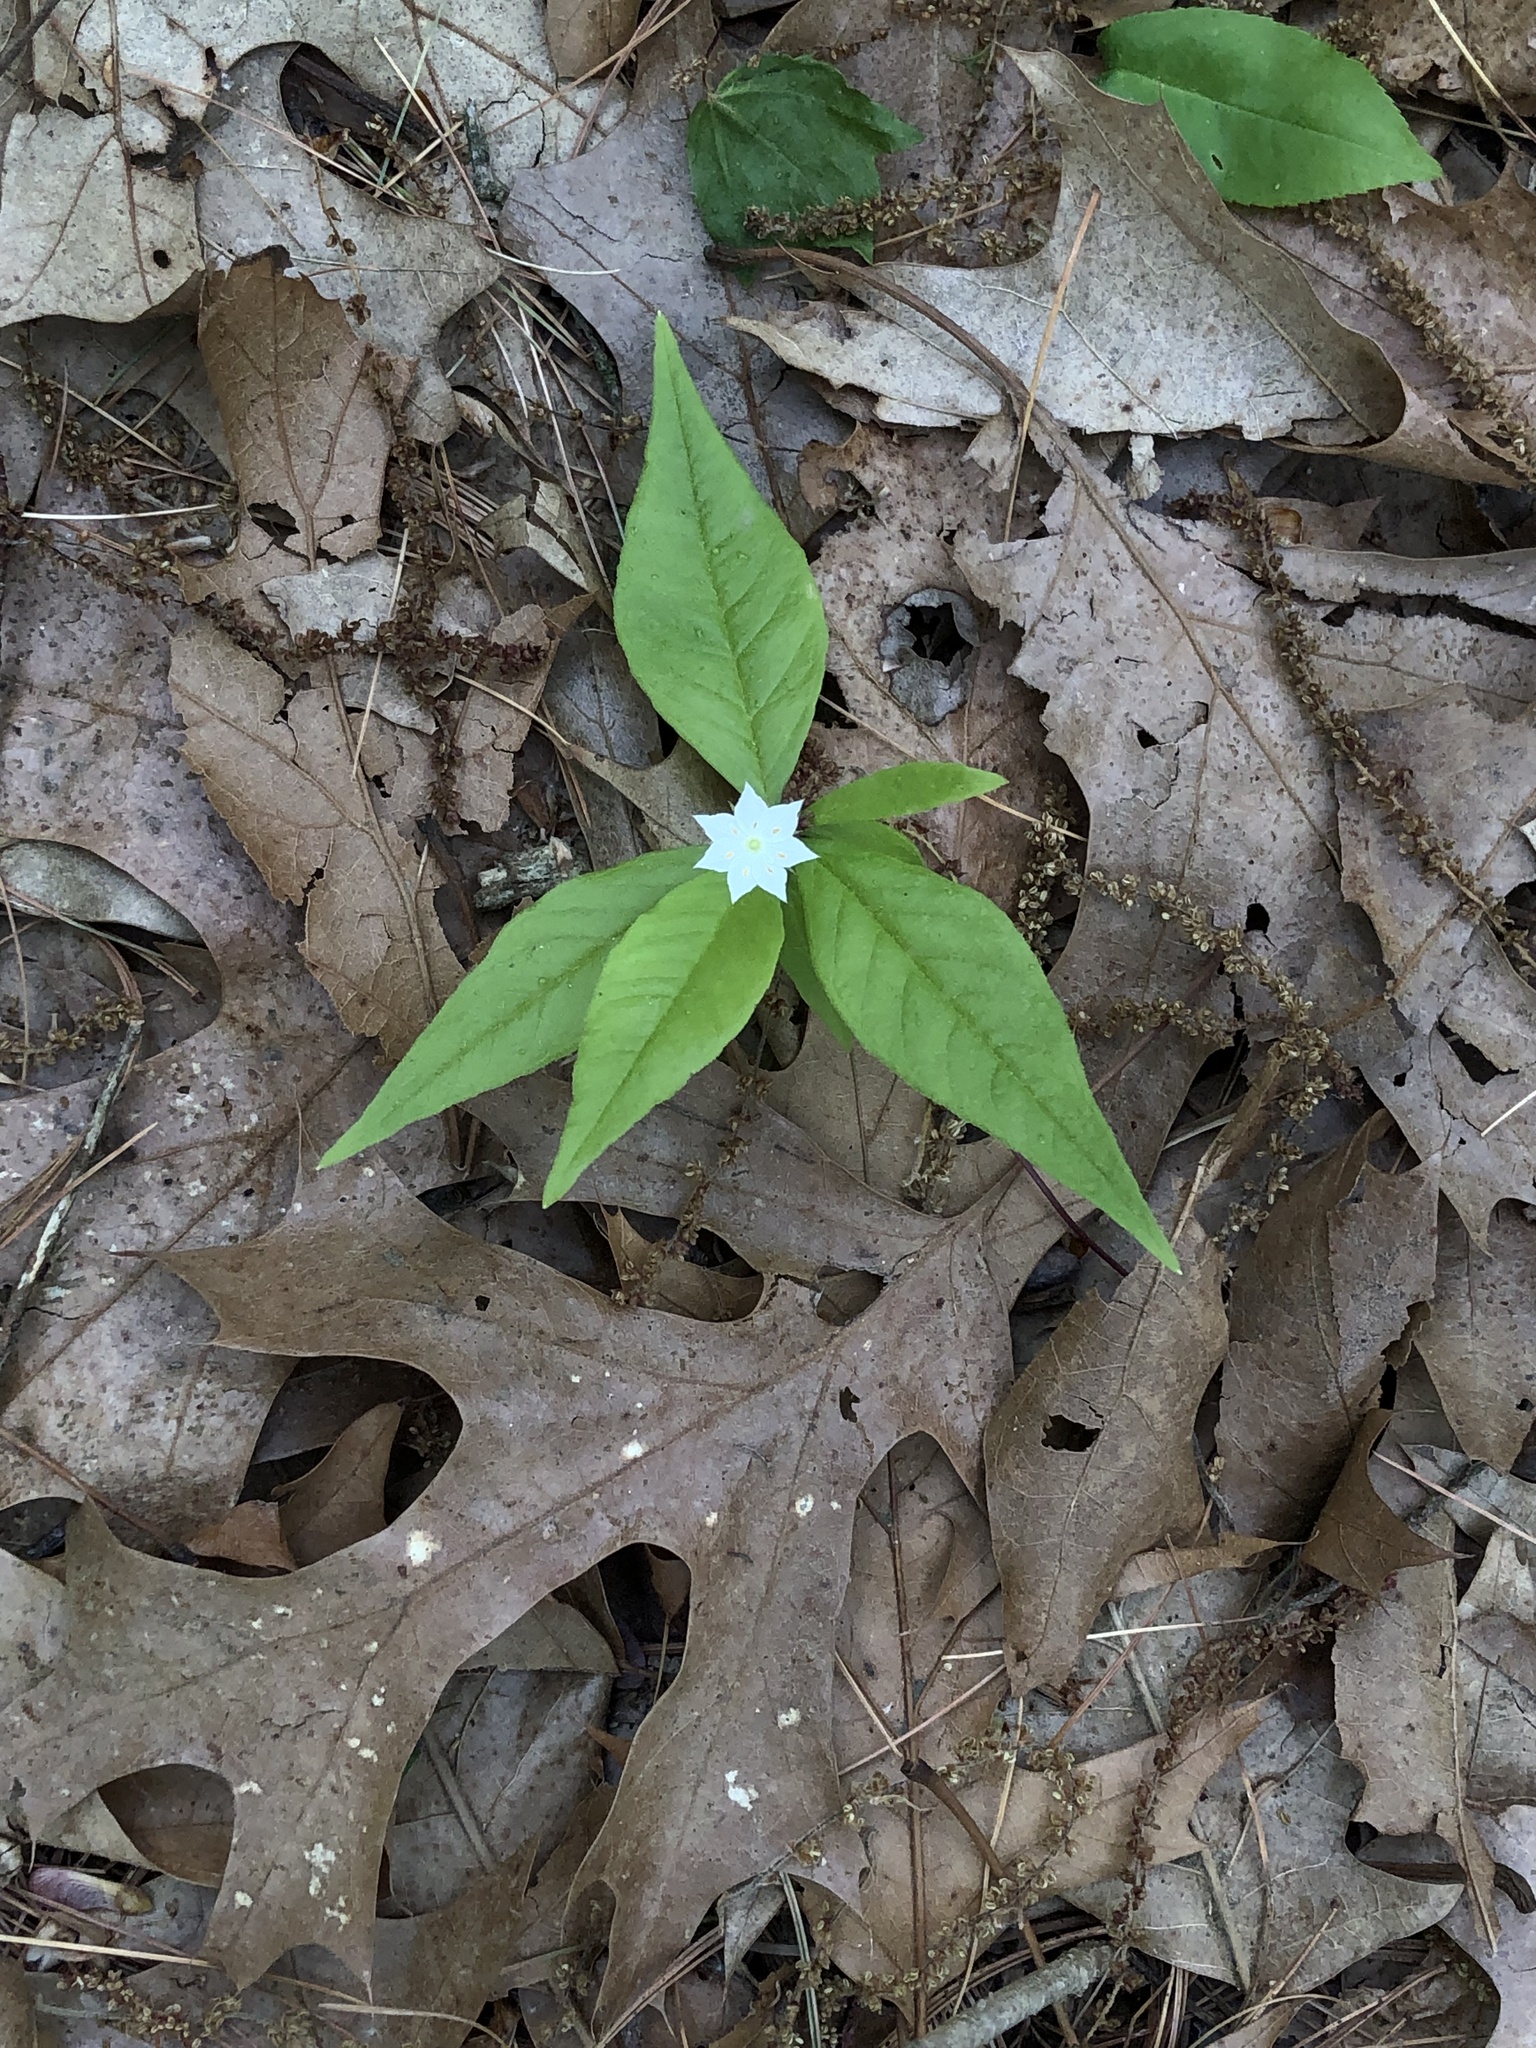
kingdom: Plantae
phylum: Tracheophyta
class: Magnoliopsida
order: Ericales
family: Primulaceae
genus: Lysimachia
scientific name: Lysimachia borealis
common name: American starflower
